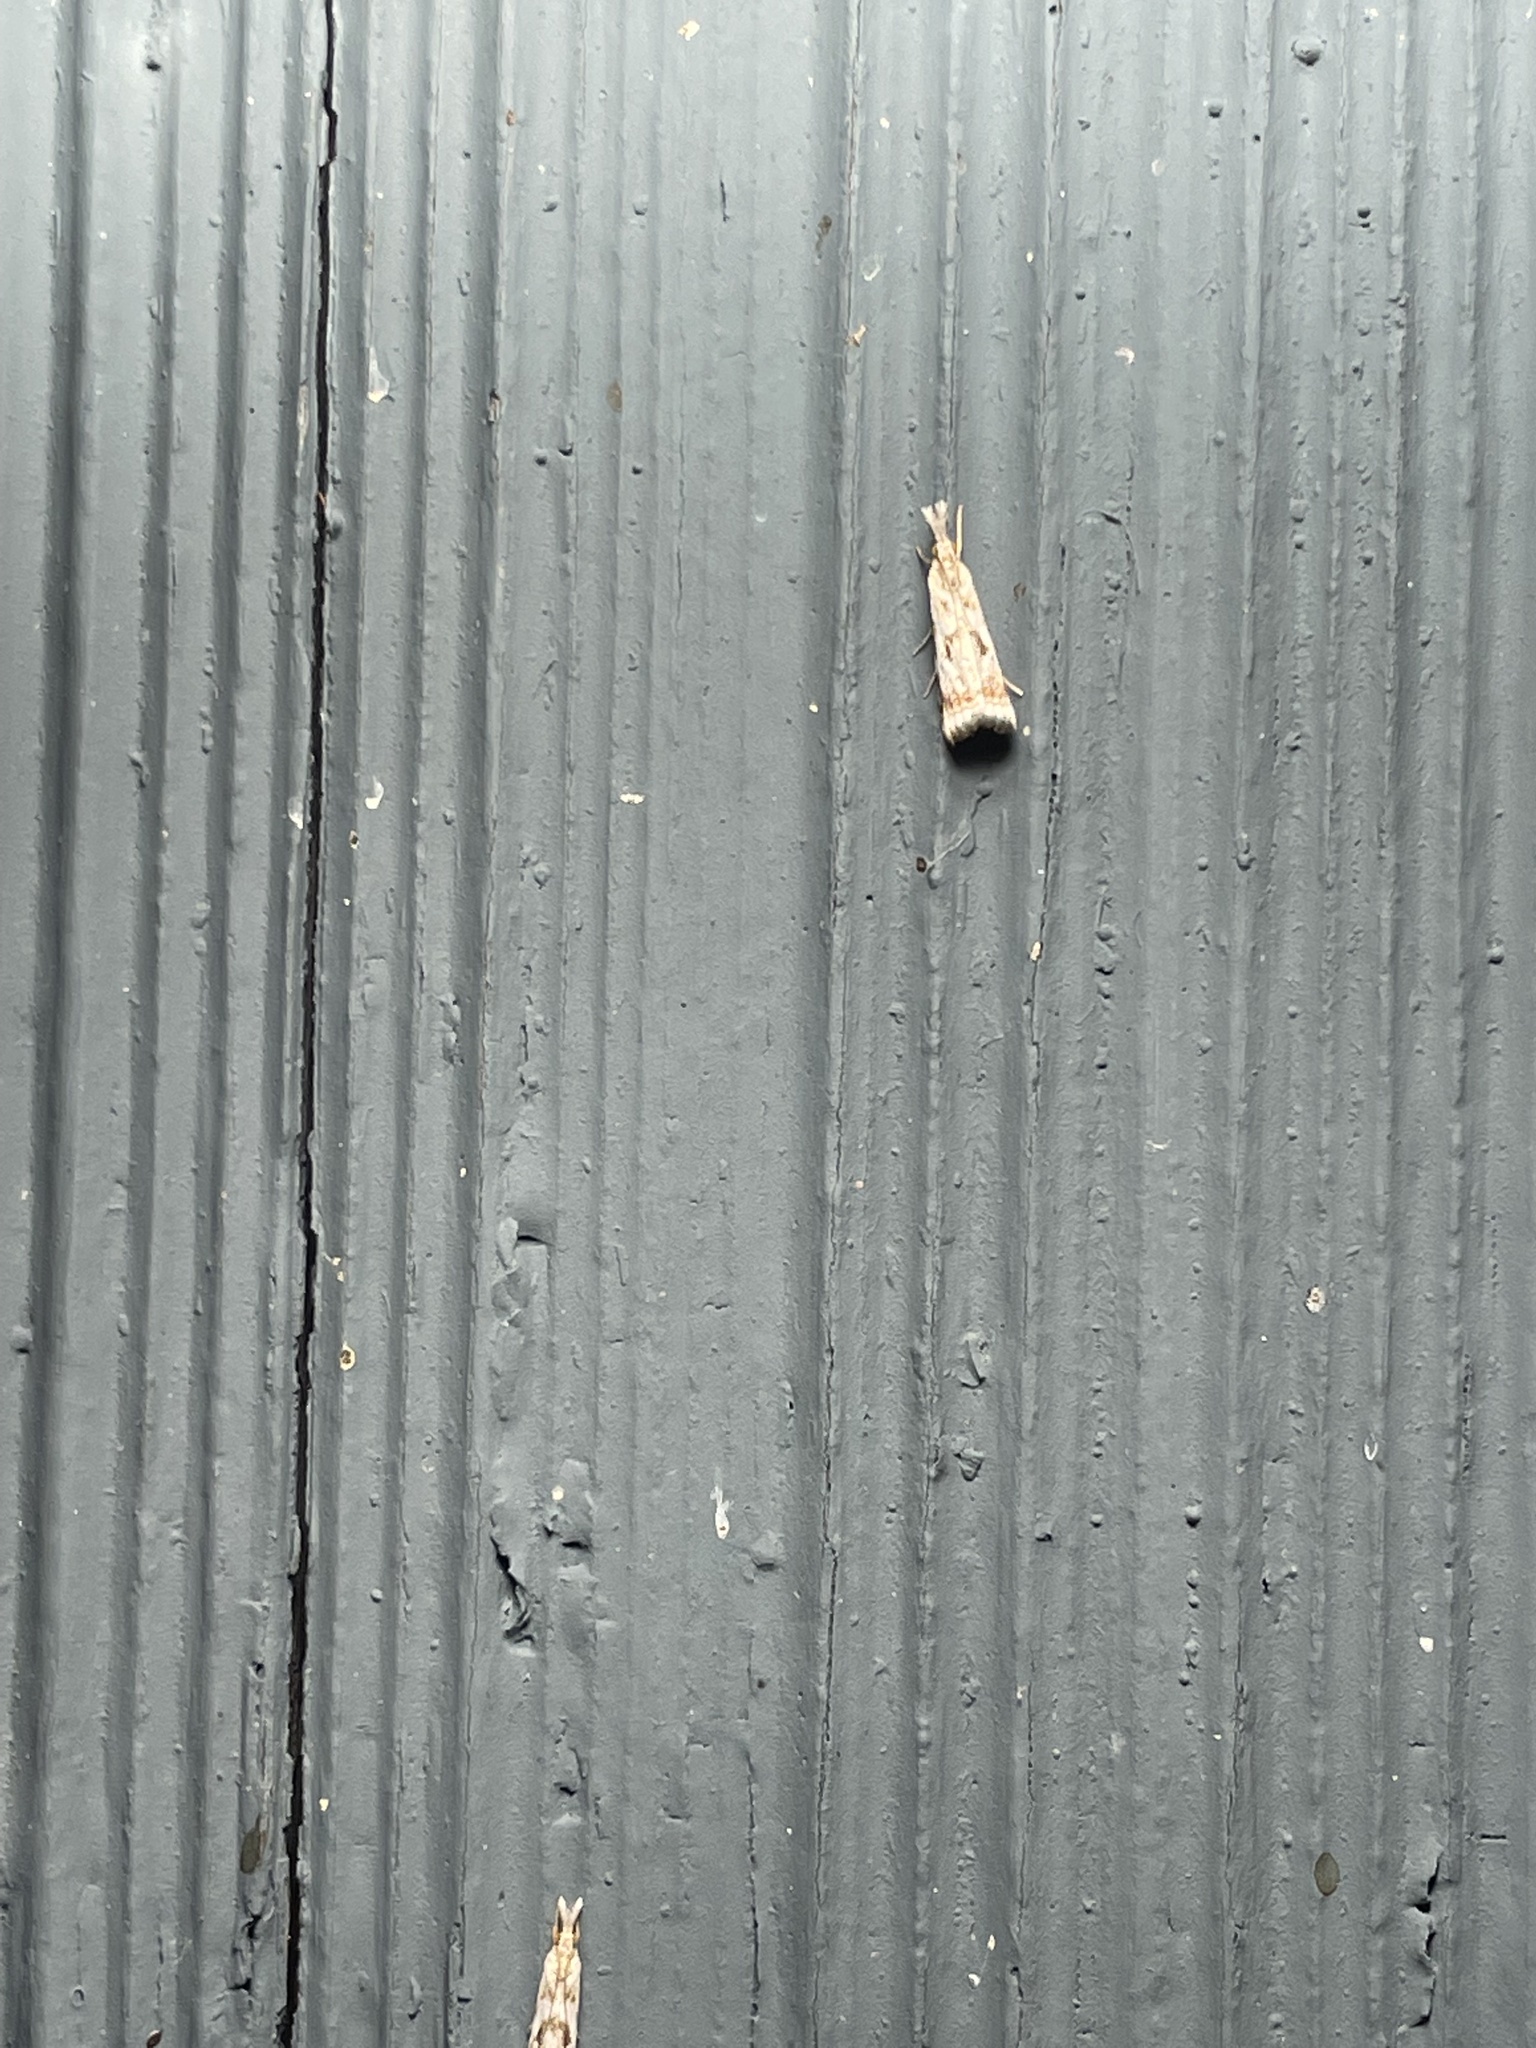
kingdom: Animalia
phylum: Arthropoda
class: Insecta
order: Lepidoptera
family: Crambidae
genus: Microcrambus
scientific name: Microcrambus elegans
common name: Elegant grass-veneer
